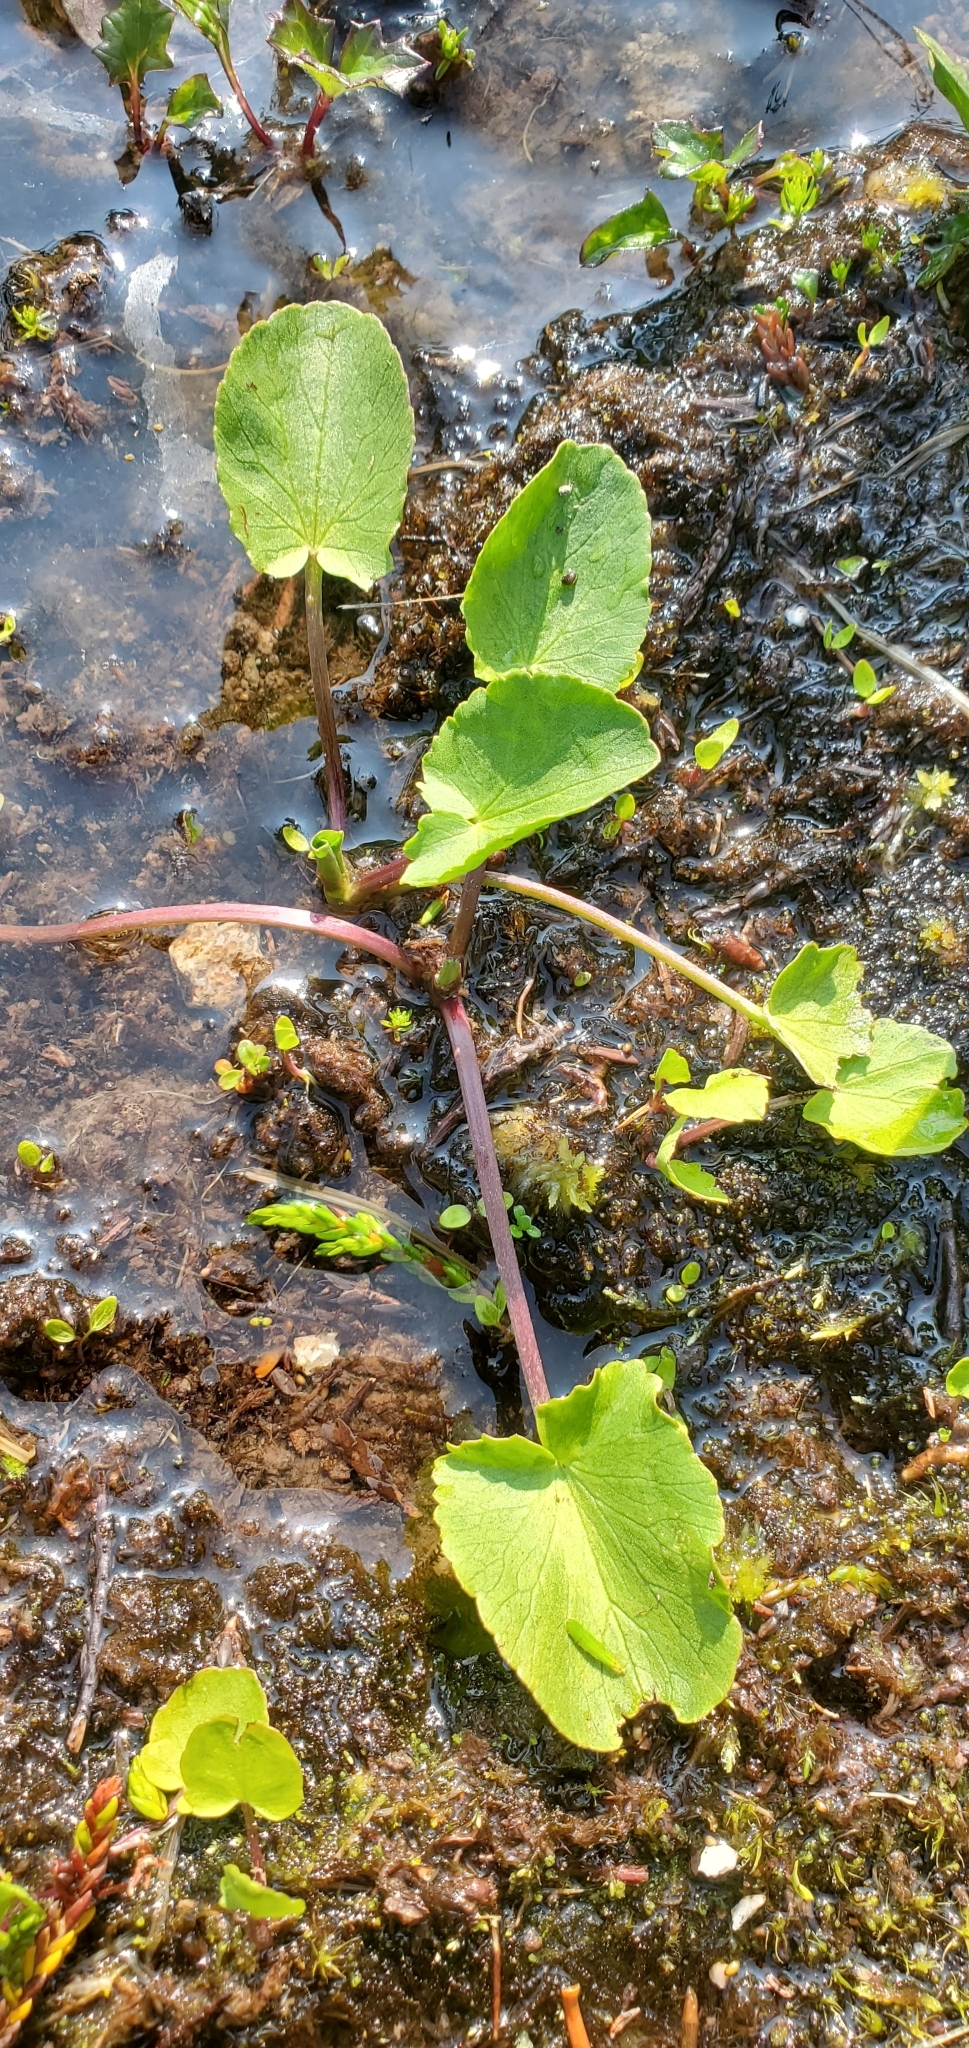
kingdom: Plantae
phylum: Tracheophyta
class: Magnoliopsida
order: Ranunculales
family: Ranunculaceae
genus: Caltha
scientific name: Caltha leptosepala
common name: Elkslip
